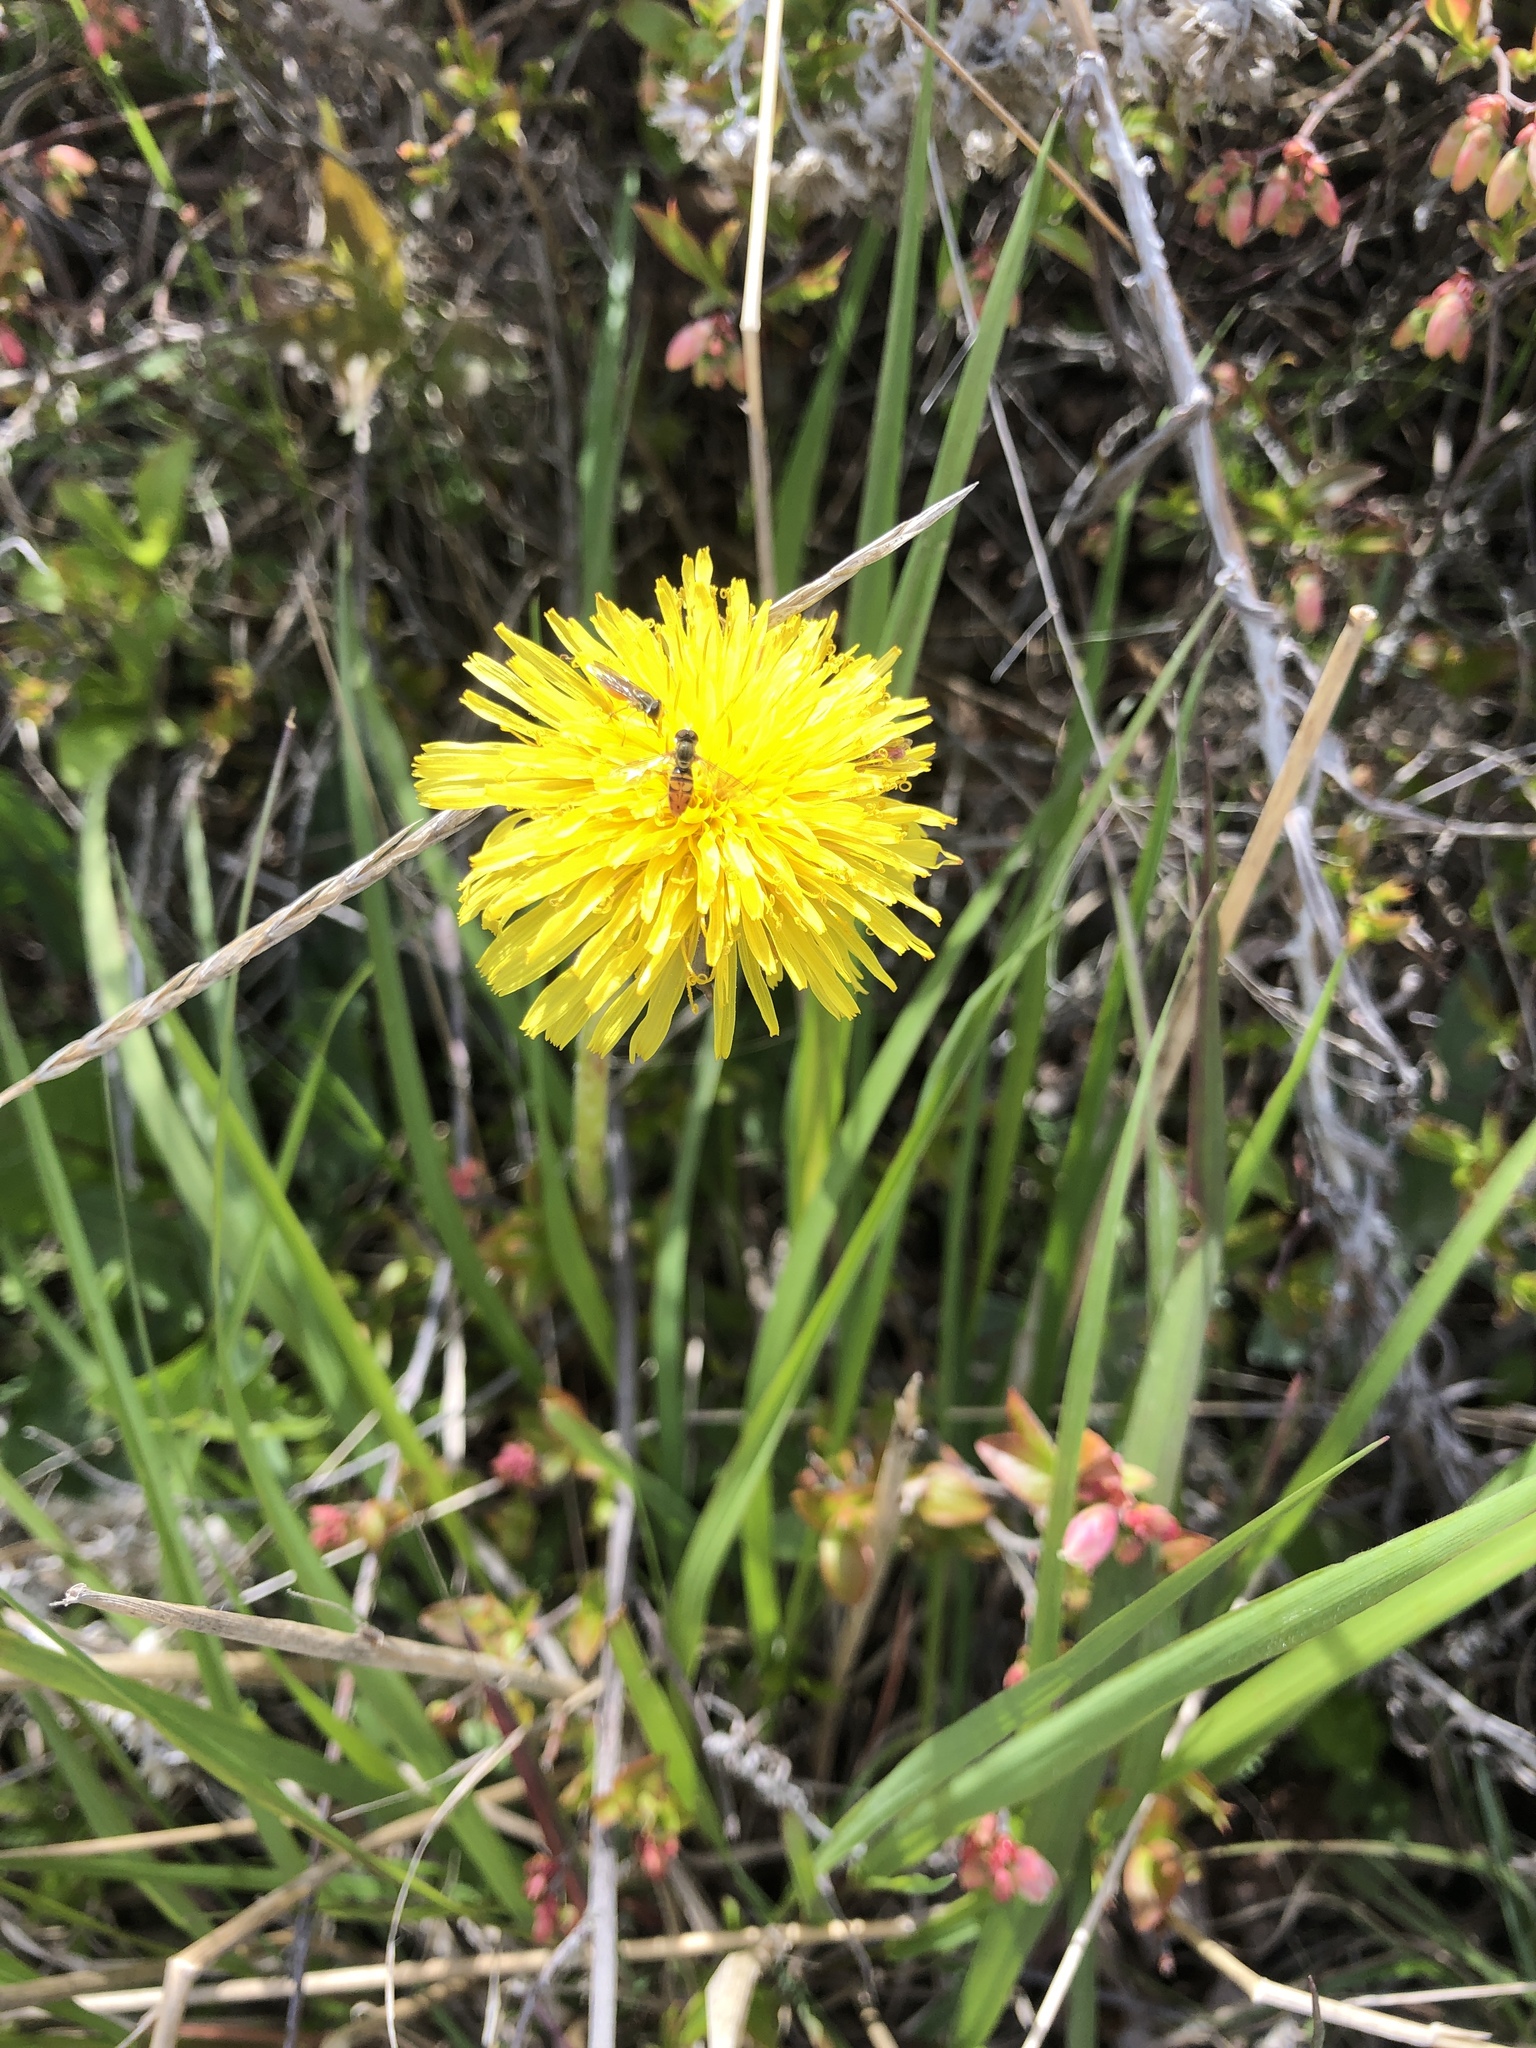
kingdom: Plantae
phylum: Tracheophyta
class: Magnoliopsida
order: Asterales
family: Asteraceae
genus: Taraxacum
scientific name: Taraxacum officinale
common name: Common dandelion
